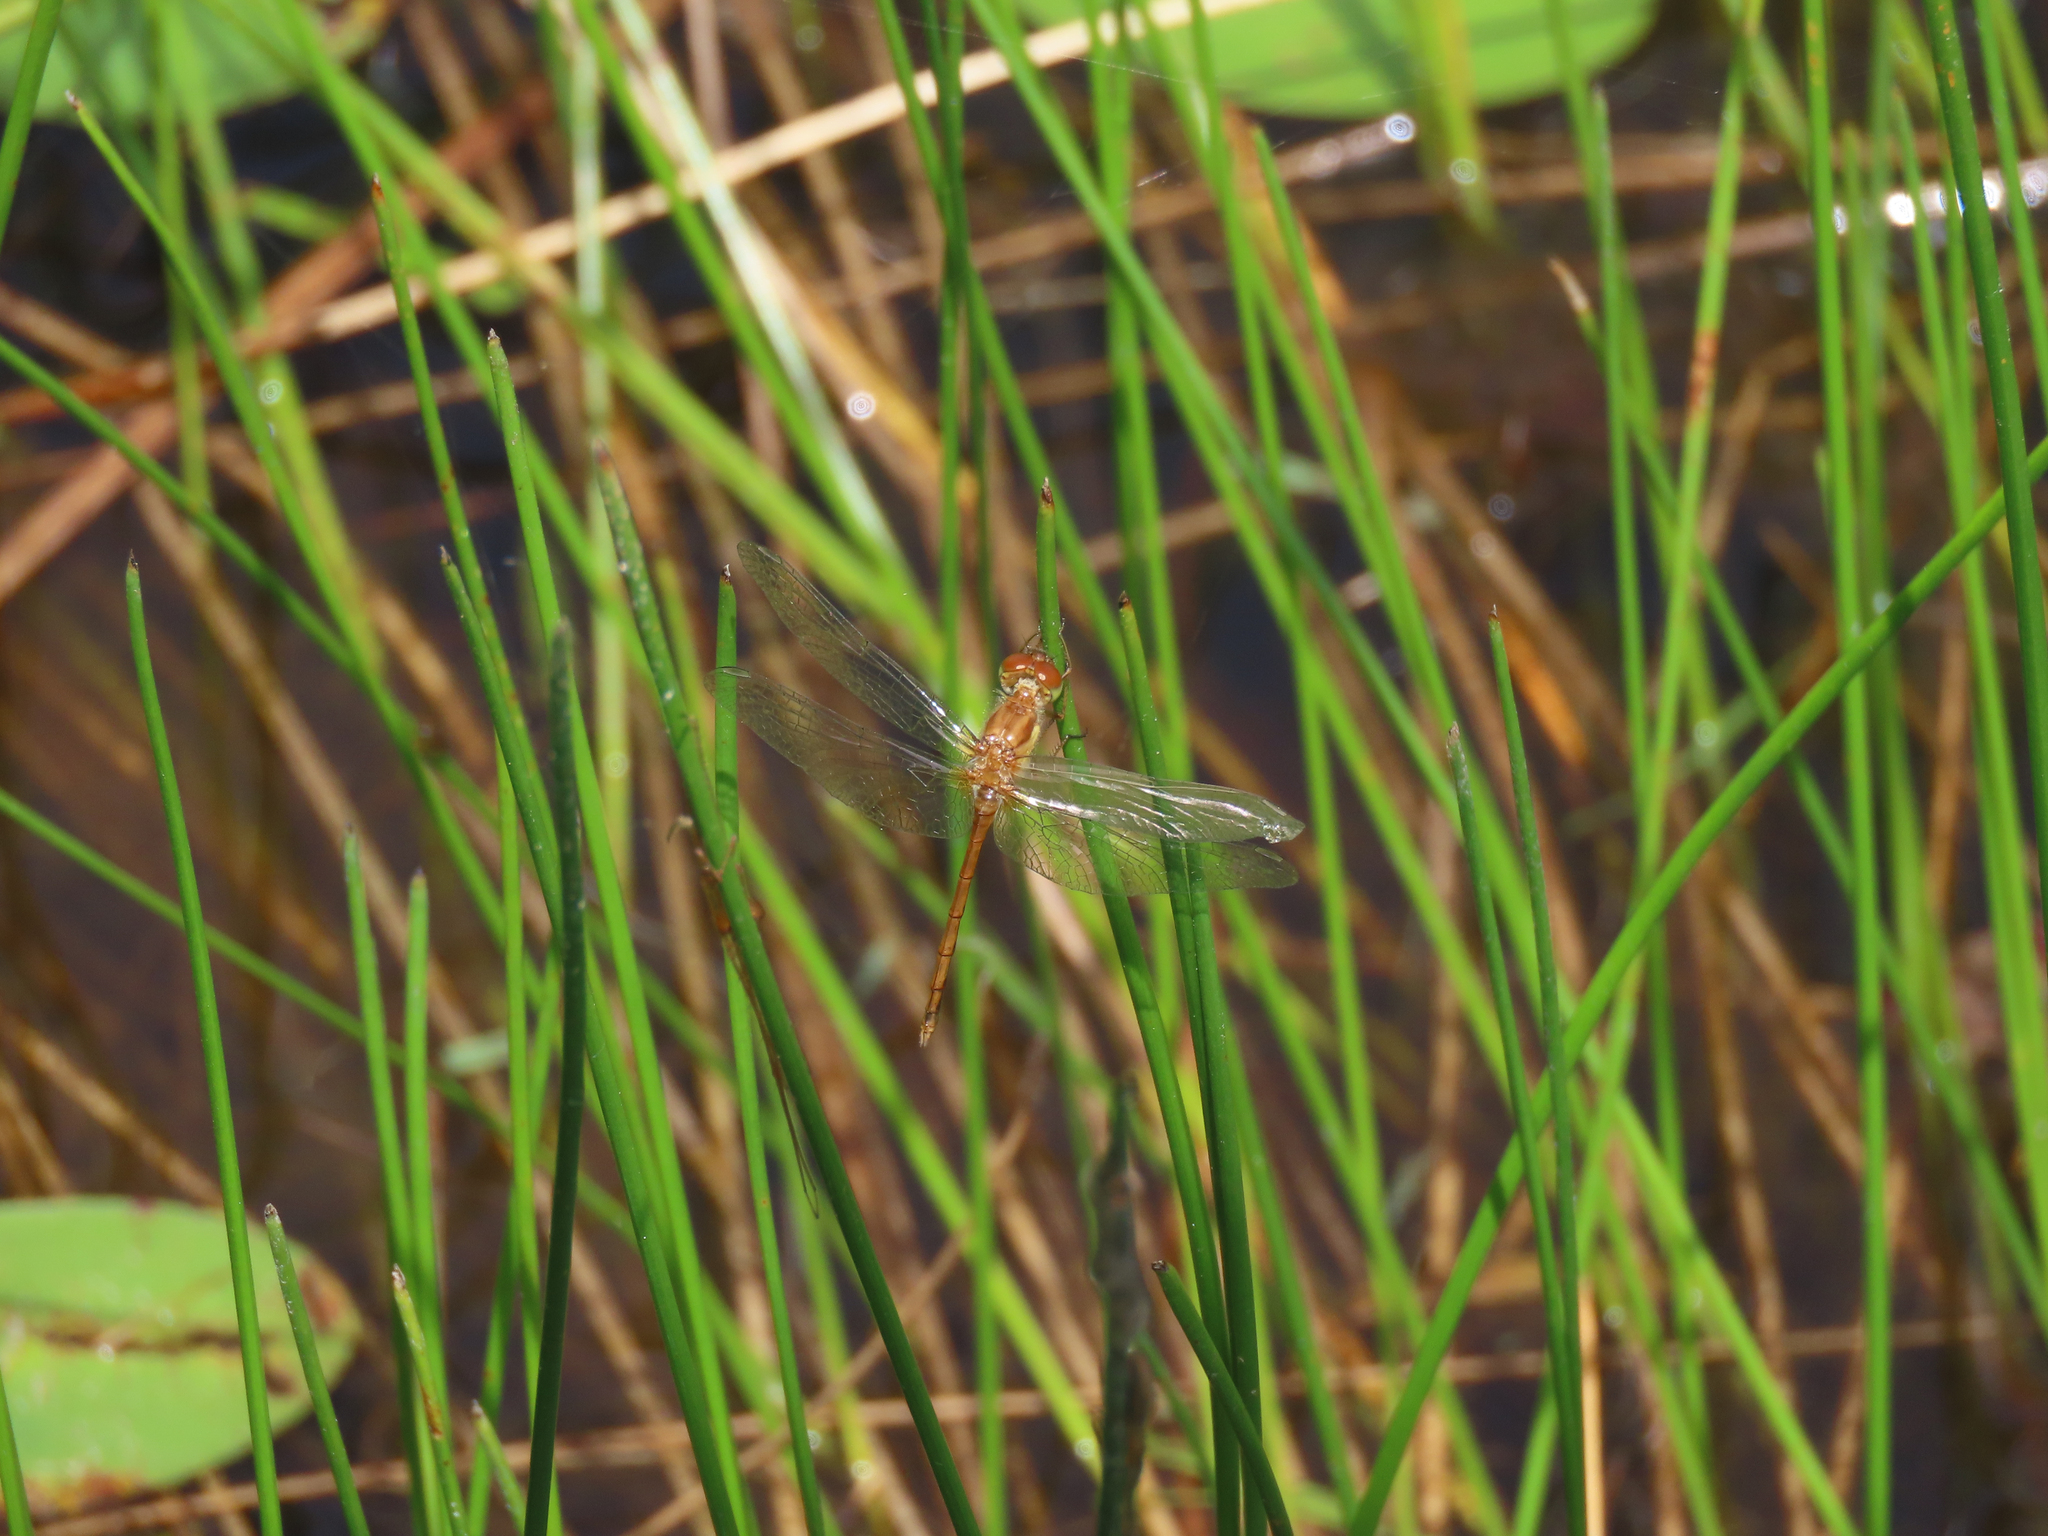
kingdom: Animalia
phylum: Arthropoda
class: Insecta
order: Odonata
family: Libellulidae
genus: Sympetrum
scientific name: Sympetrum vicinum
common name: Autumn meadowhawk
